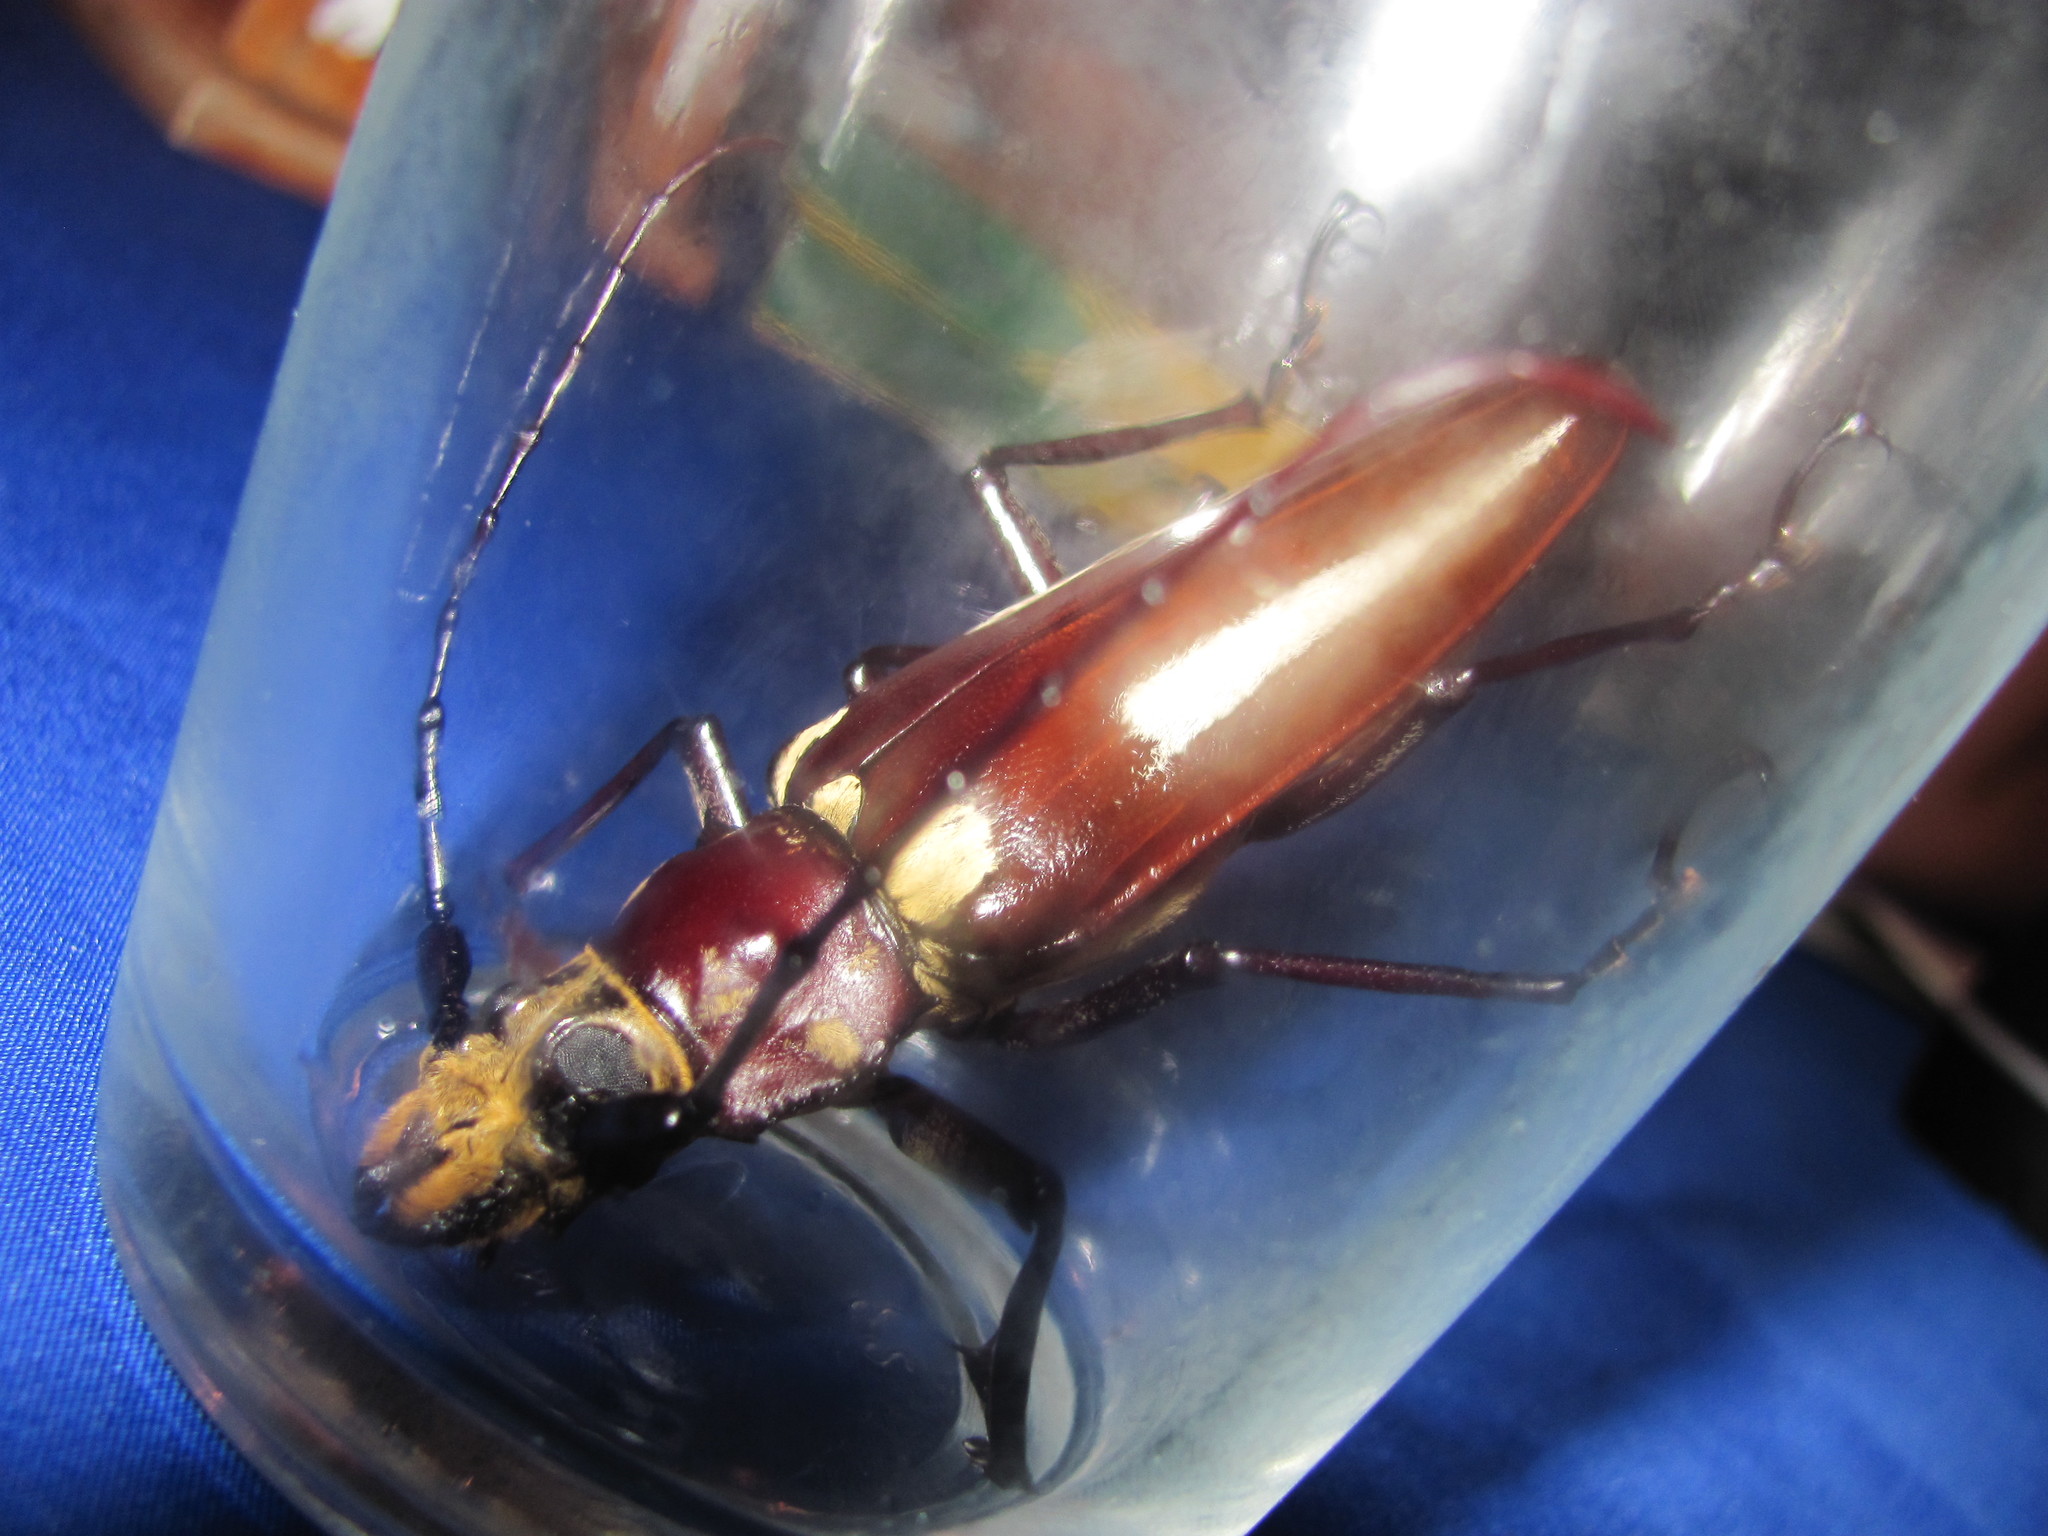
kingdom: Animalia
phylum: Arthropoda
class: Insecta
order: Coleoptera
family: Cerambycidae
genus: Callipogon
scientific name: Callipogon lemoinei
